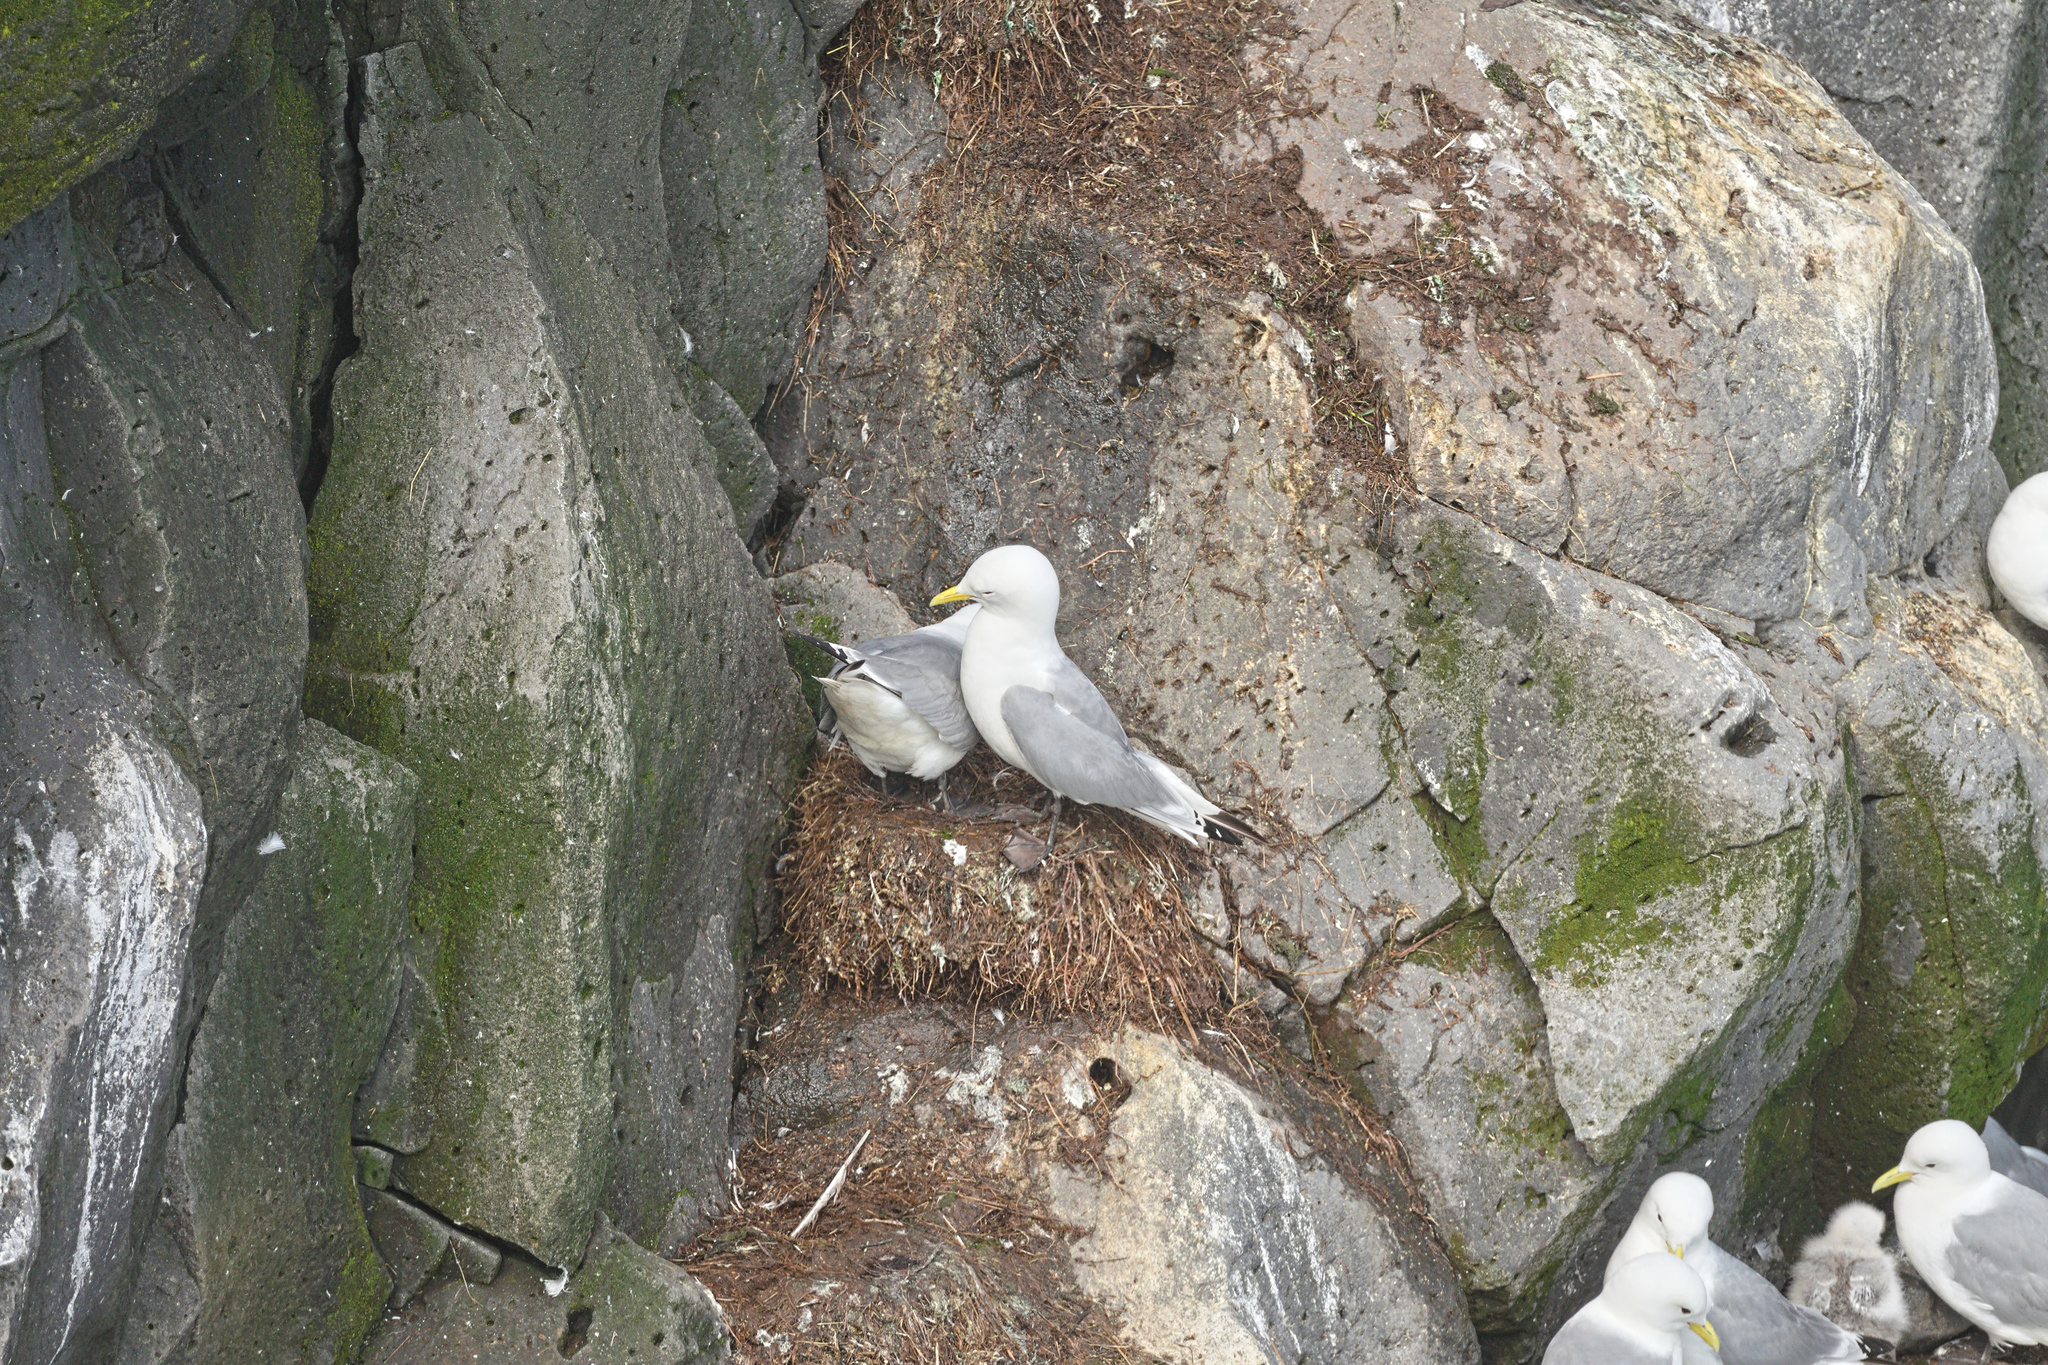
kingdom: Animalia
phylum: Chordata
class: Aves
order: Charadriiformes
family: Laridae
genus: Rissa
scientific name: Rissa tridactyla
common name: Black-legged kittiwake
